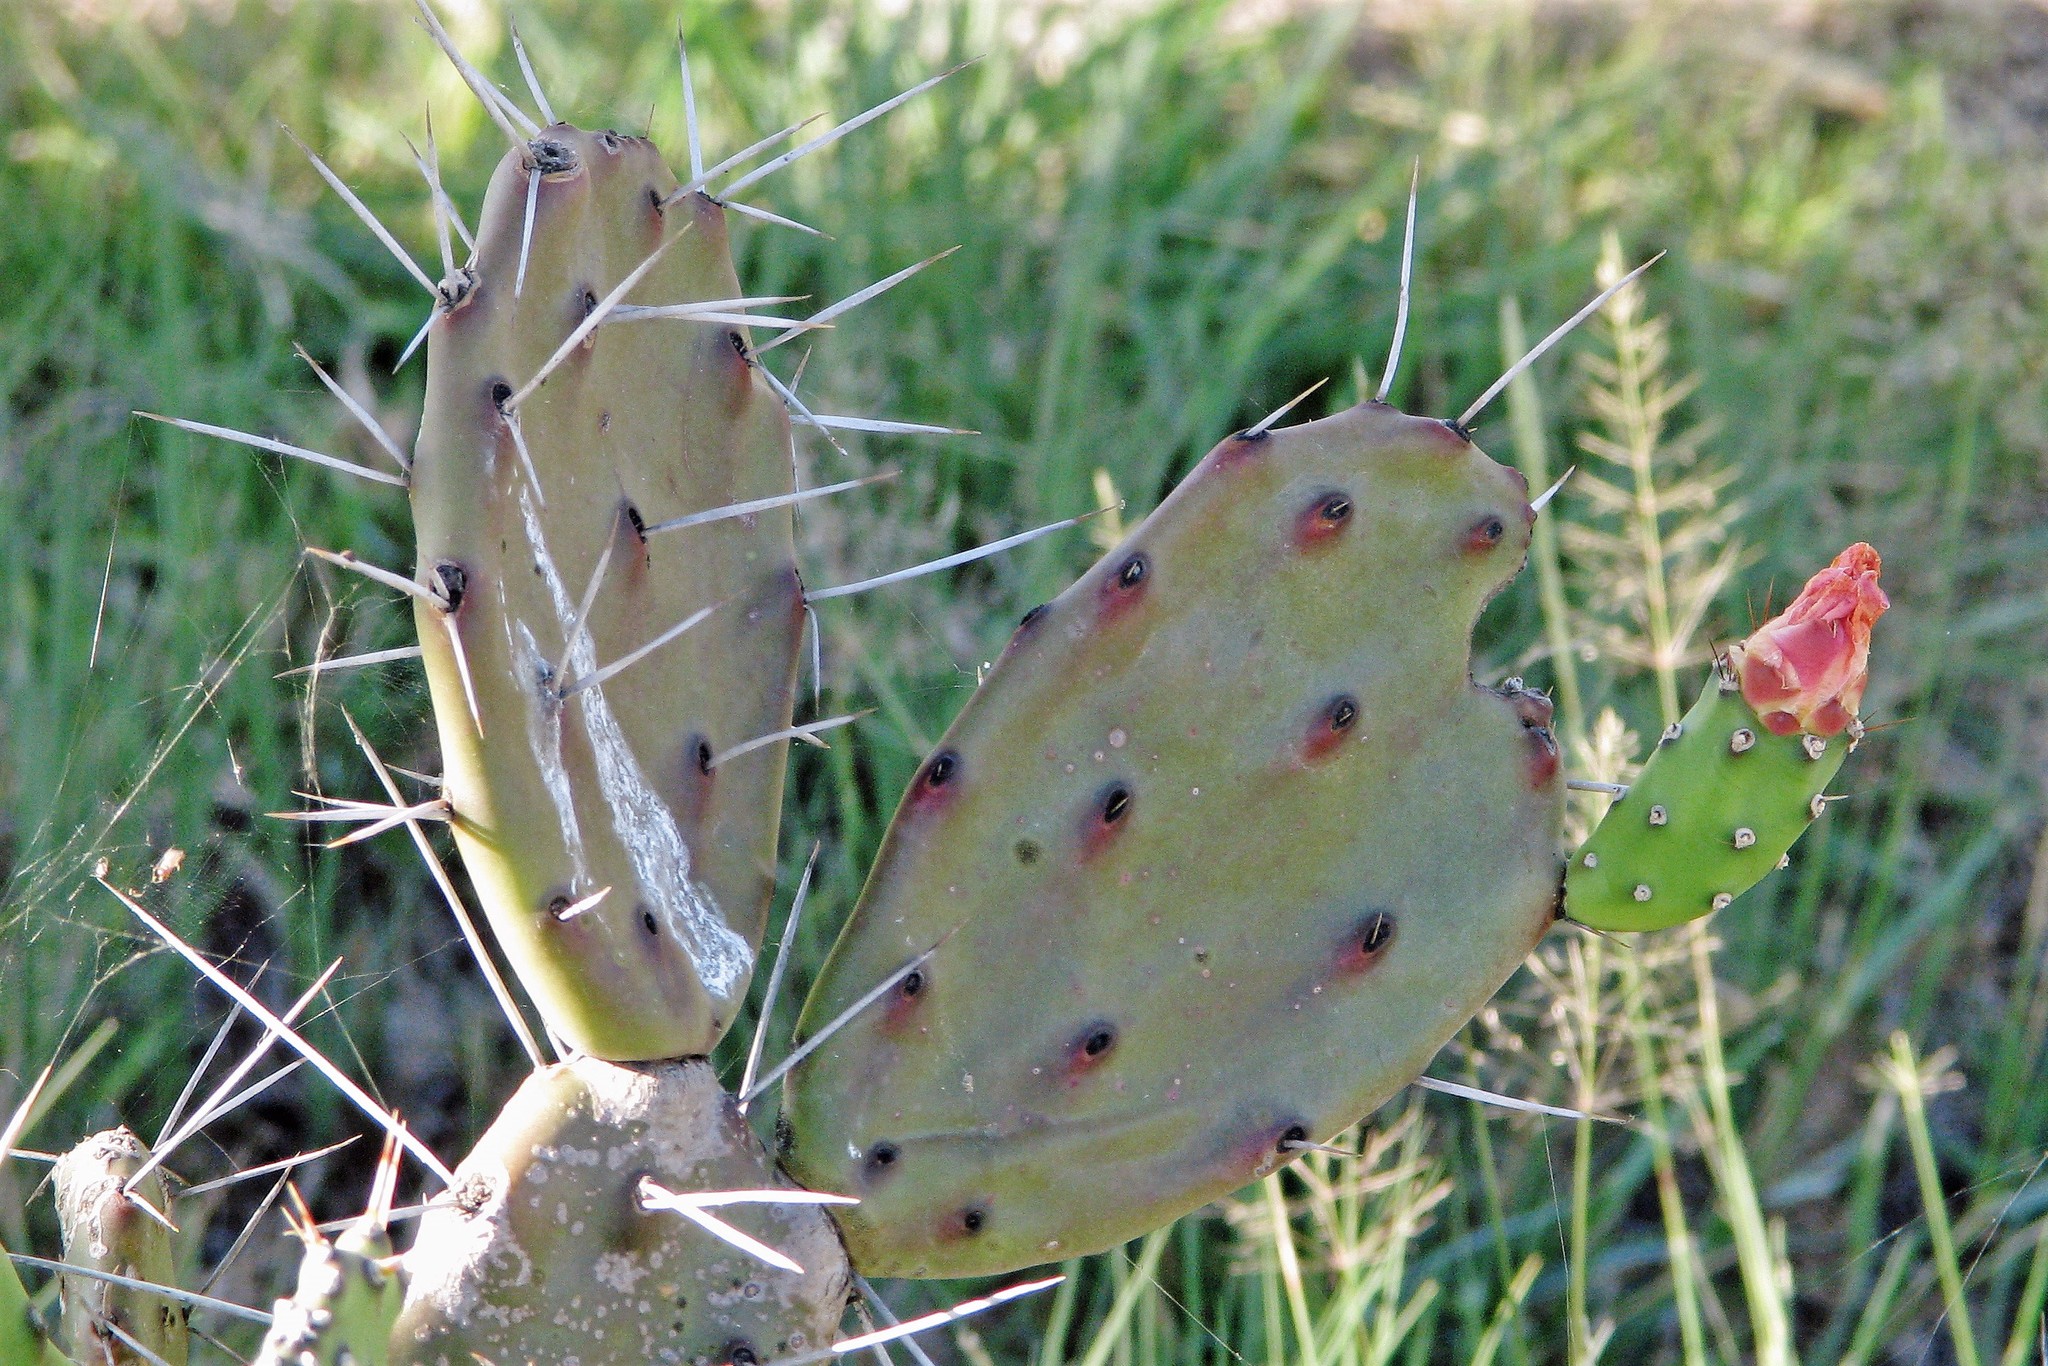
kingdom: Plantae
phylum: Tracheophyta
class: Magnoliopsida
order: Caryophyllales
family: Cactaceae
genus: Opuntia
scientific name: Opuntia elata
